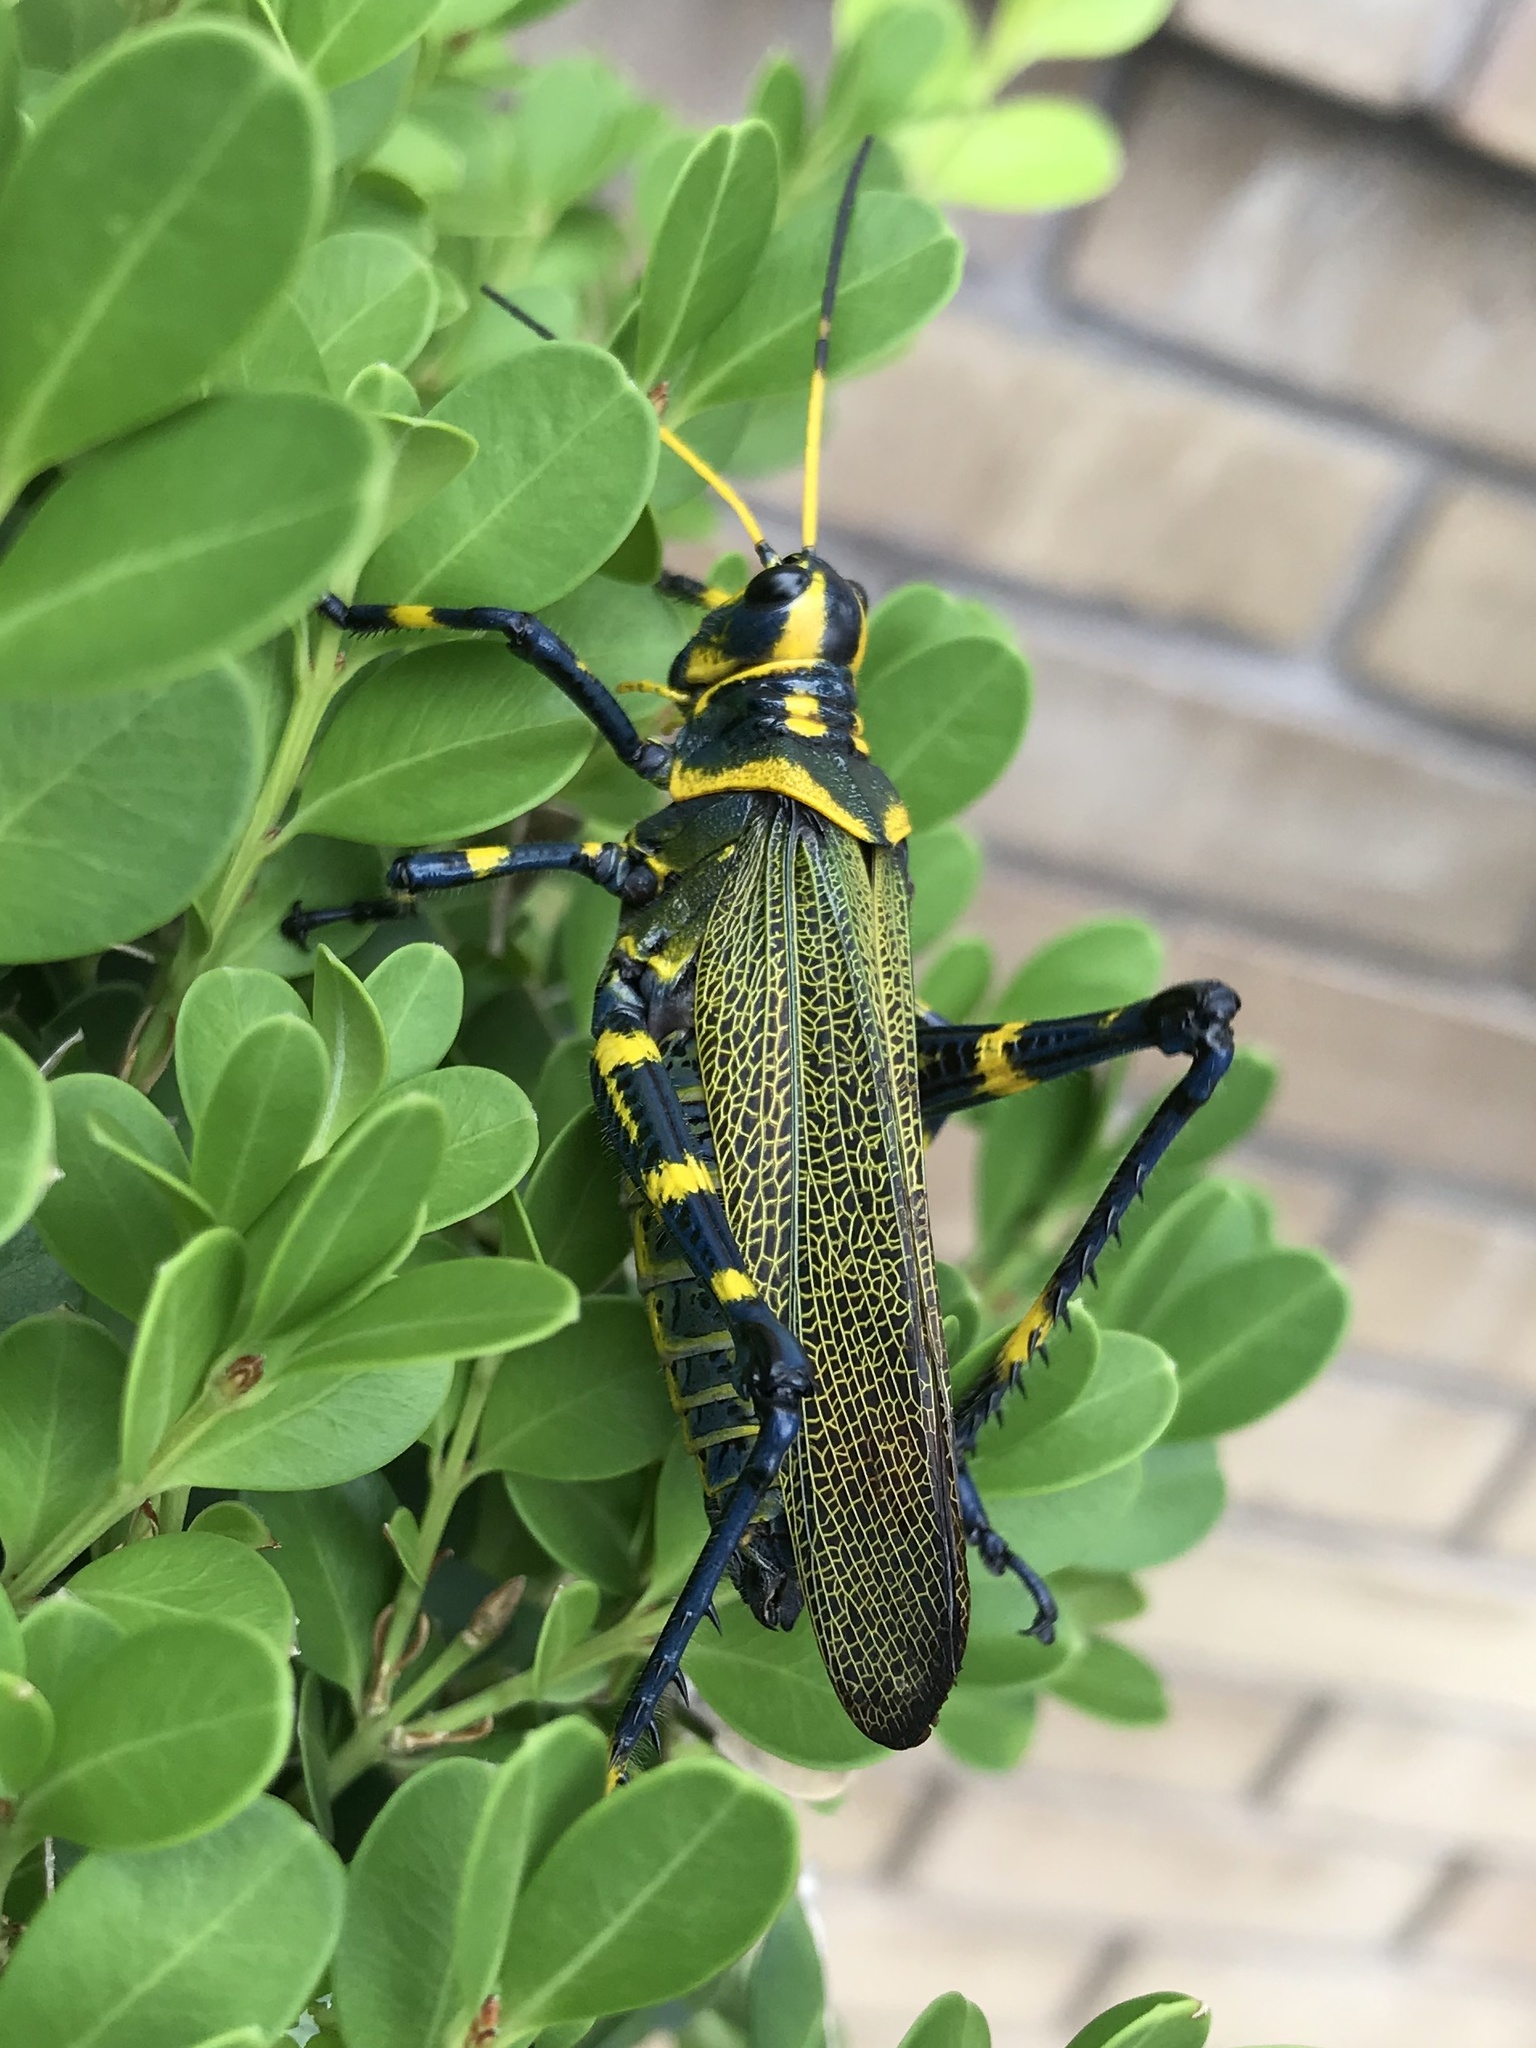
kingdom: Animalia
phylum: Arthropoda
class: Insecta
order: Orthoptera
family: Romaleidae
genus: Chromacris
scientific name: Chromacris colorata
